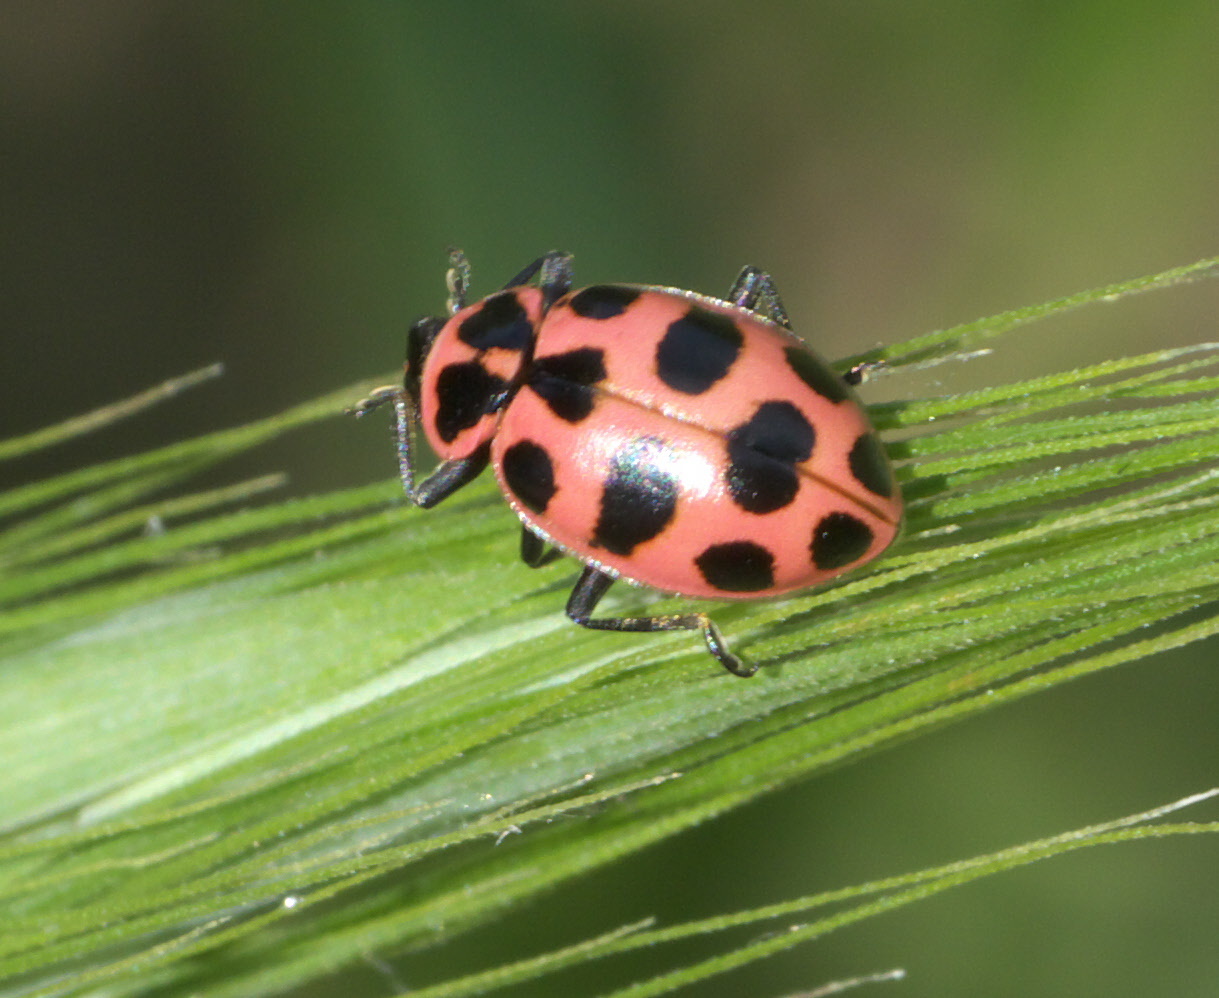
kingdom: Animalia
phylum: Arthropoda
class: Insecta
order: Coleoptera
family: Coccinellidae
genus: Coleomegilla
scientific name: Coleomegilla maculata
